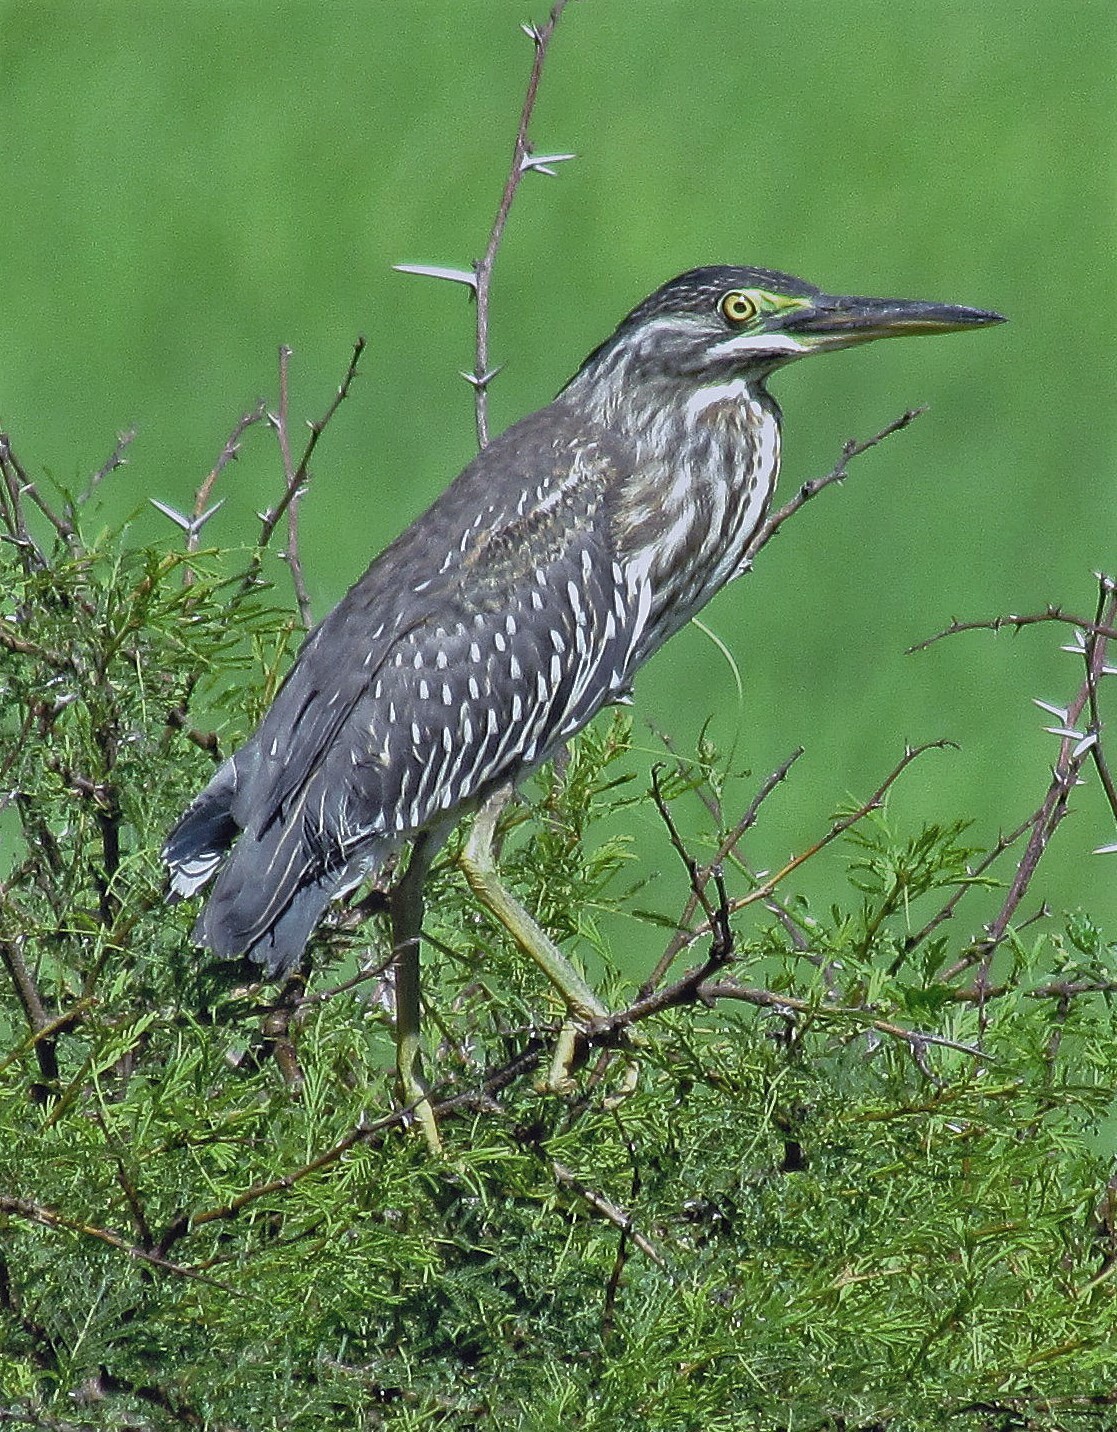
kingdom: Animalia
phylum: Chordata
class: Aves
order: Pelecaniformes
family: Ardeidae
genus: Butorides
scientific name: Butorides striata
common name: Striated heron
